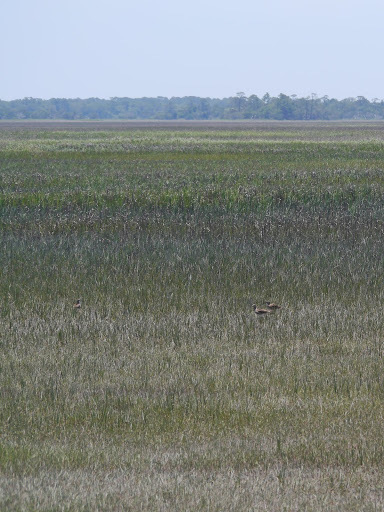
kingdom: Animalia
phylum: Chordata
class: Aves
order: Charadriiformes
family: Scolopacidae
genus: Numenius
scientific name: Numenius phaeopus
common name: Whimbrel
